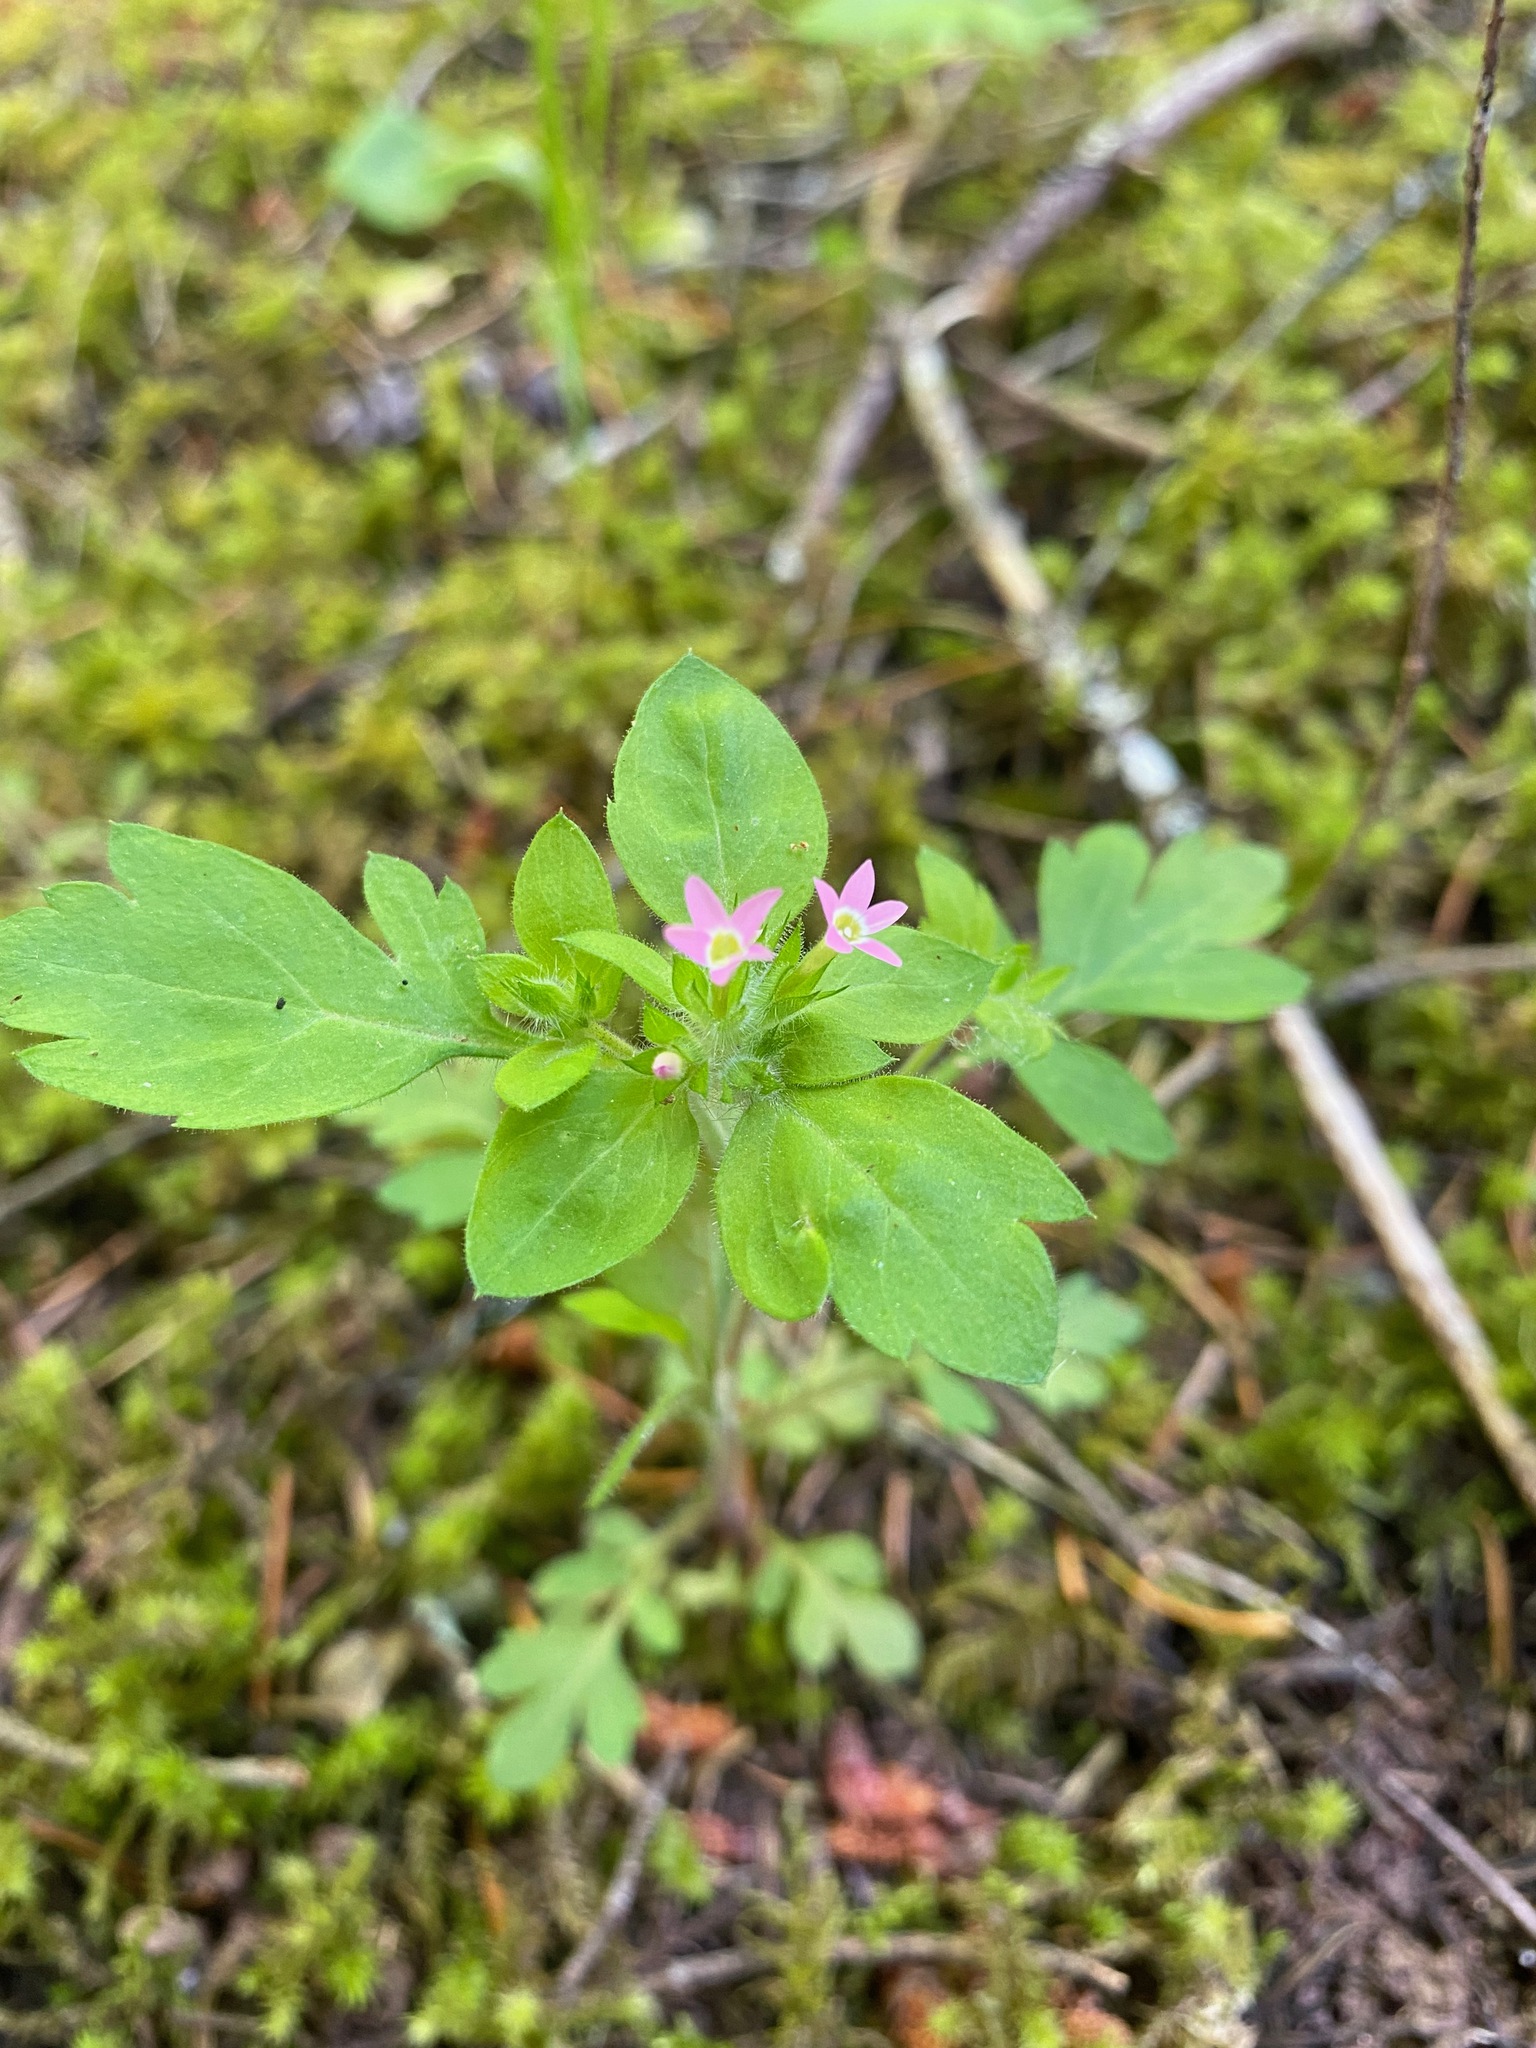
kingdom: Plantae
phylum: Tracheophyta
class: Magnoliopsida
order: Ericales
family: Polemoniaceae
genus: Collomia
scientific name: Collomia heterophylla
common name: Variable-leaved collomia
